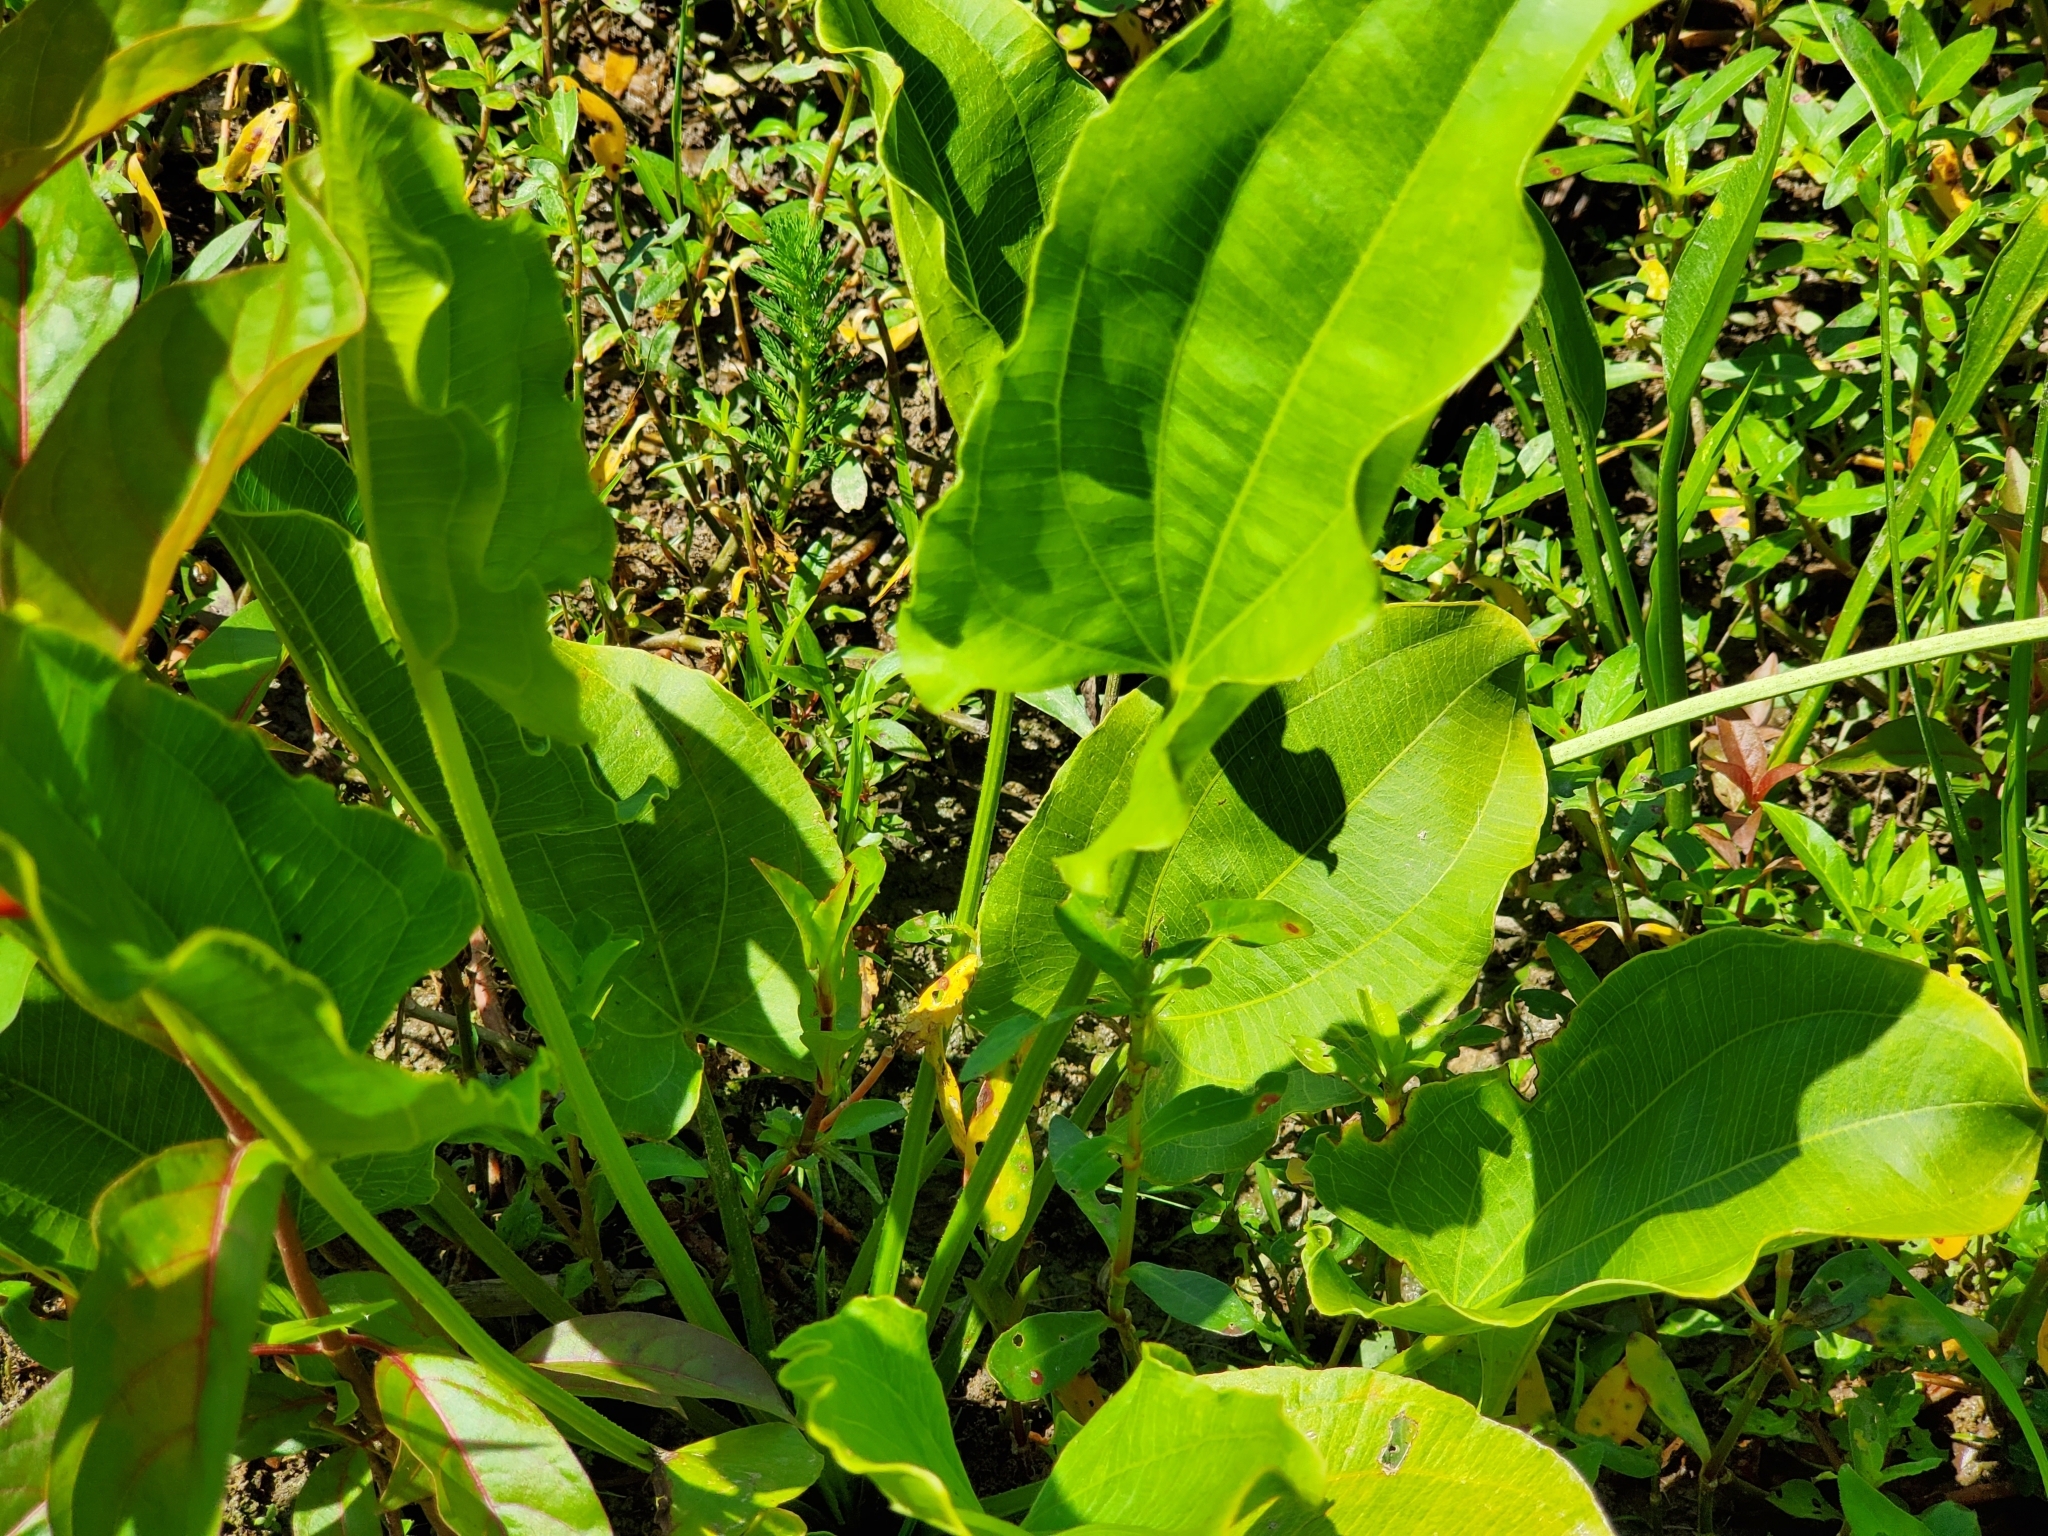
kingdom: Plantae
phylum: Tracheophyta
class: Liliopsida
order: Alismatales
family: Alismataceae
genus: Aquarius
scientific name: Aquarius cordifolius
